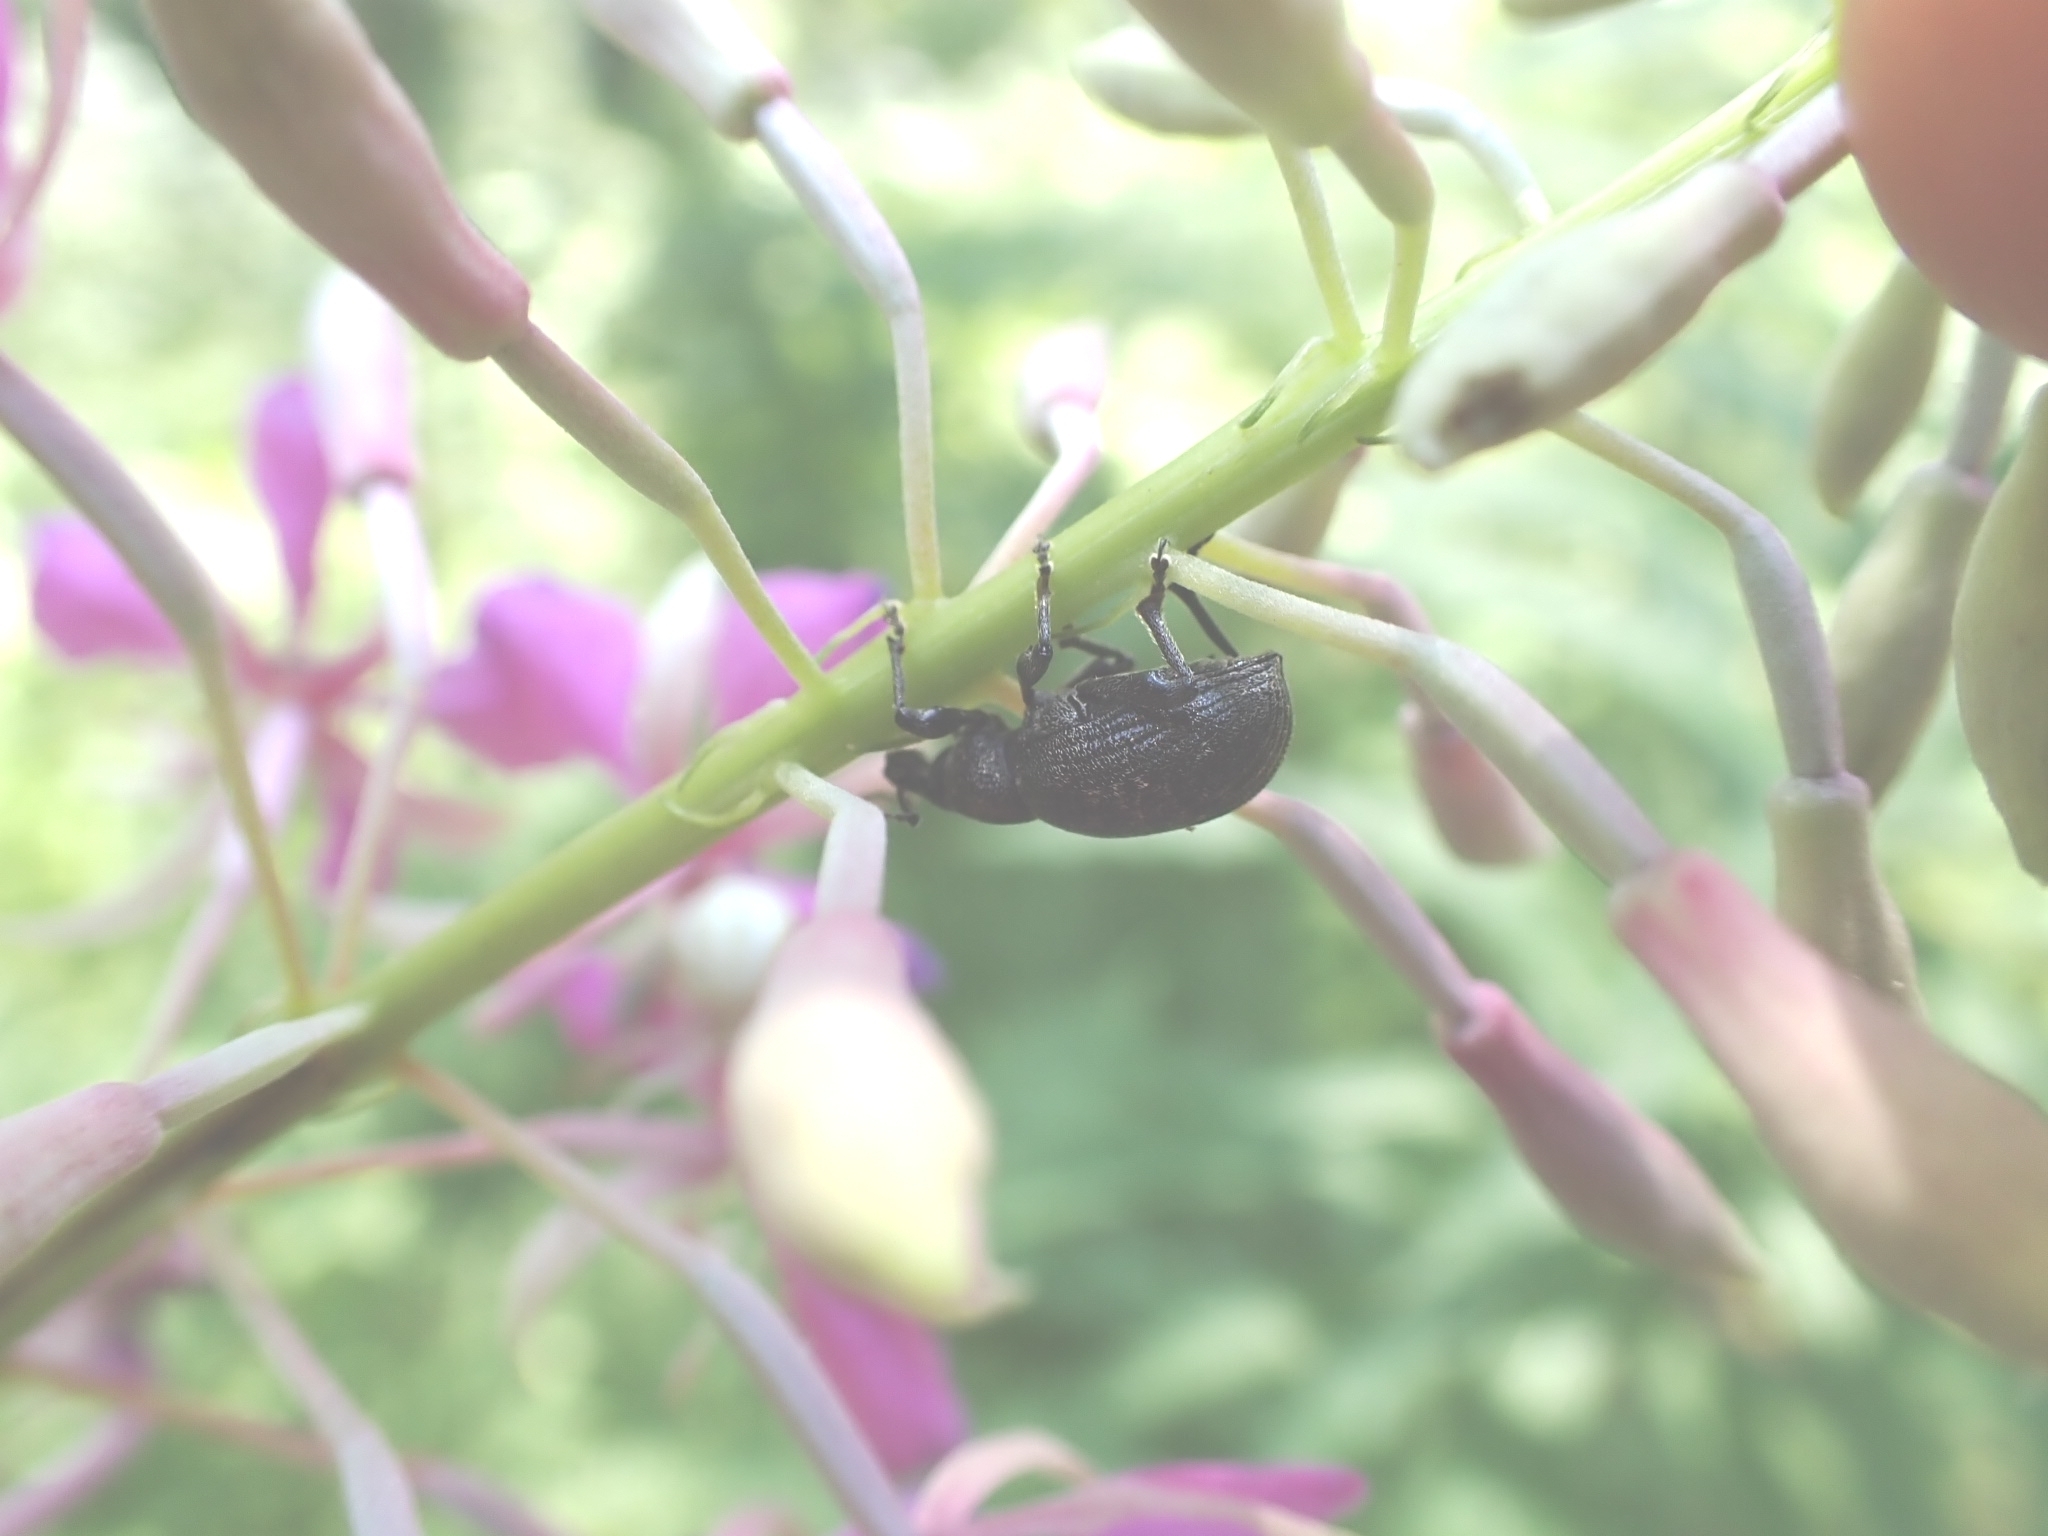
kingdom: Animalia
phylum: Arthropoda
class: Insecta
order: Coleoptera
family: Curculionidae
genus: Otiorhynchus
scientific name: Otiorhynchus tristis
